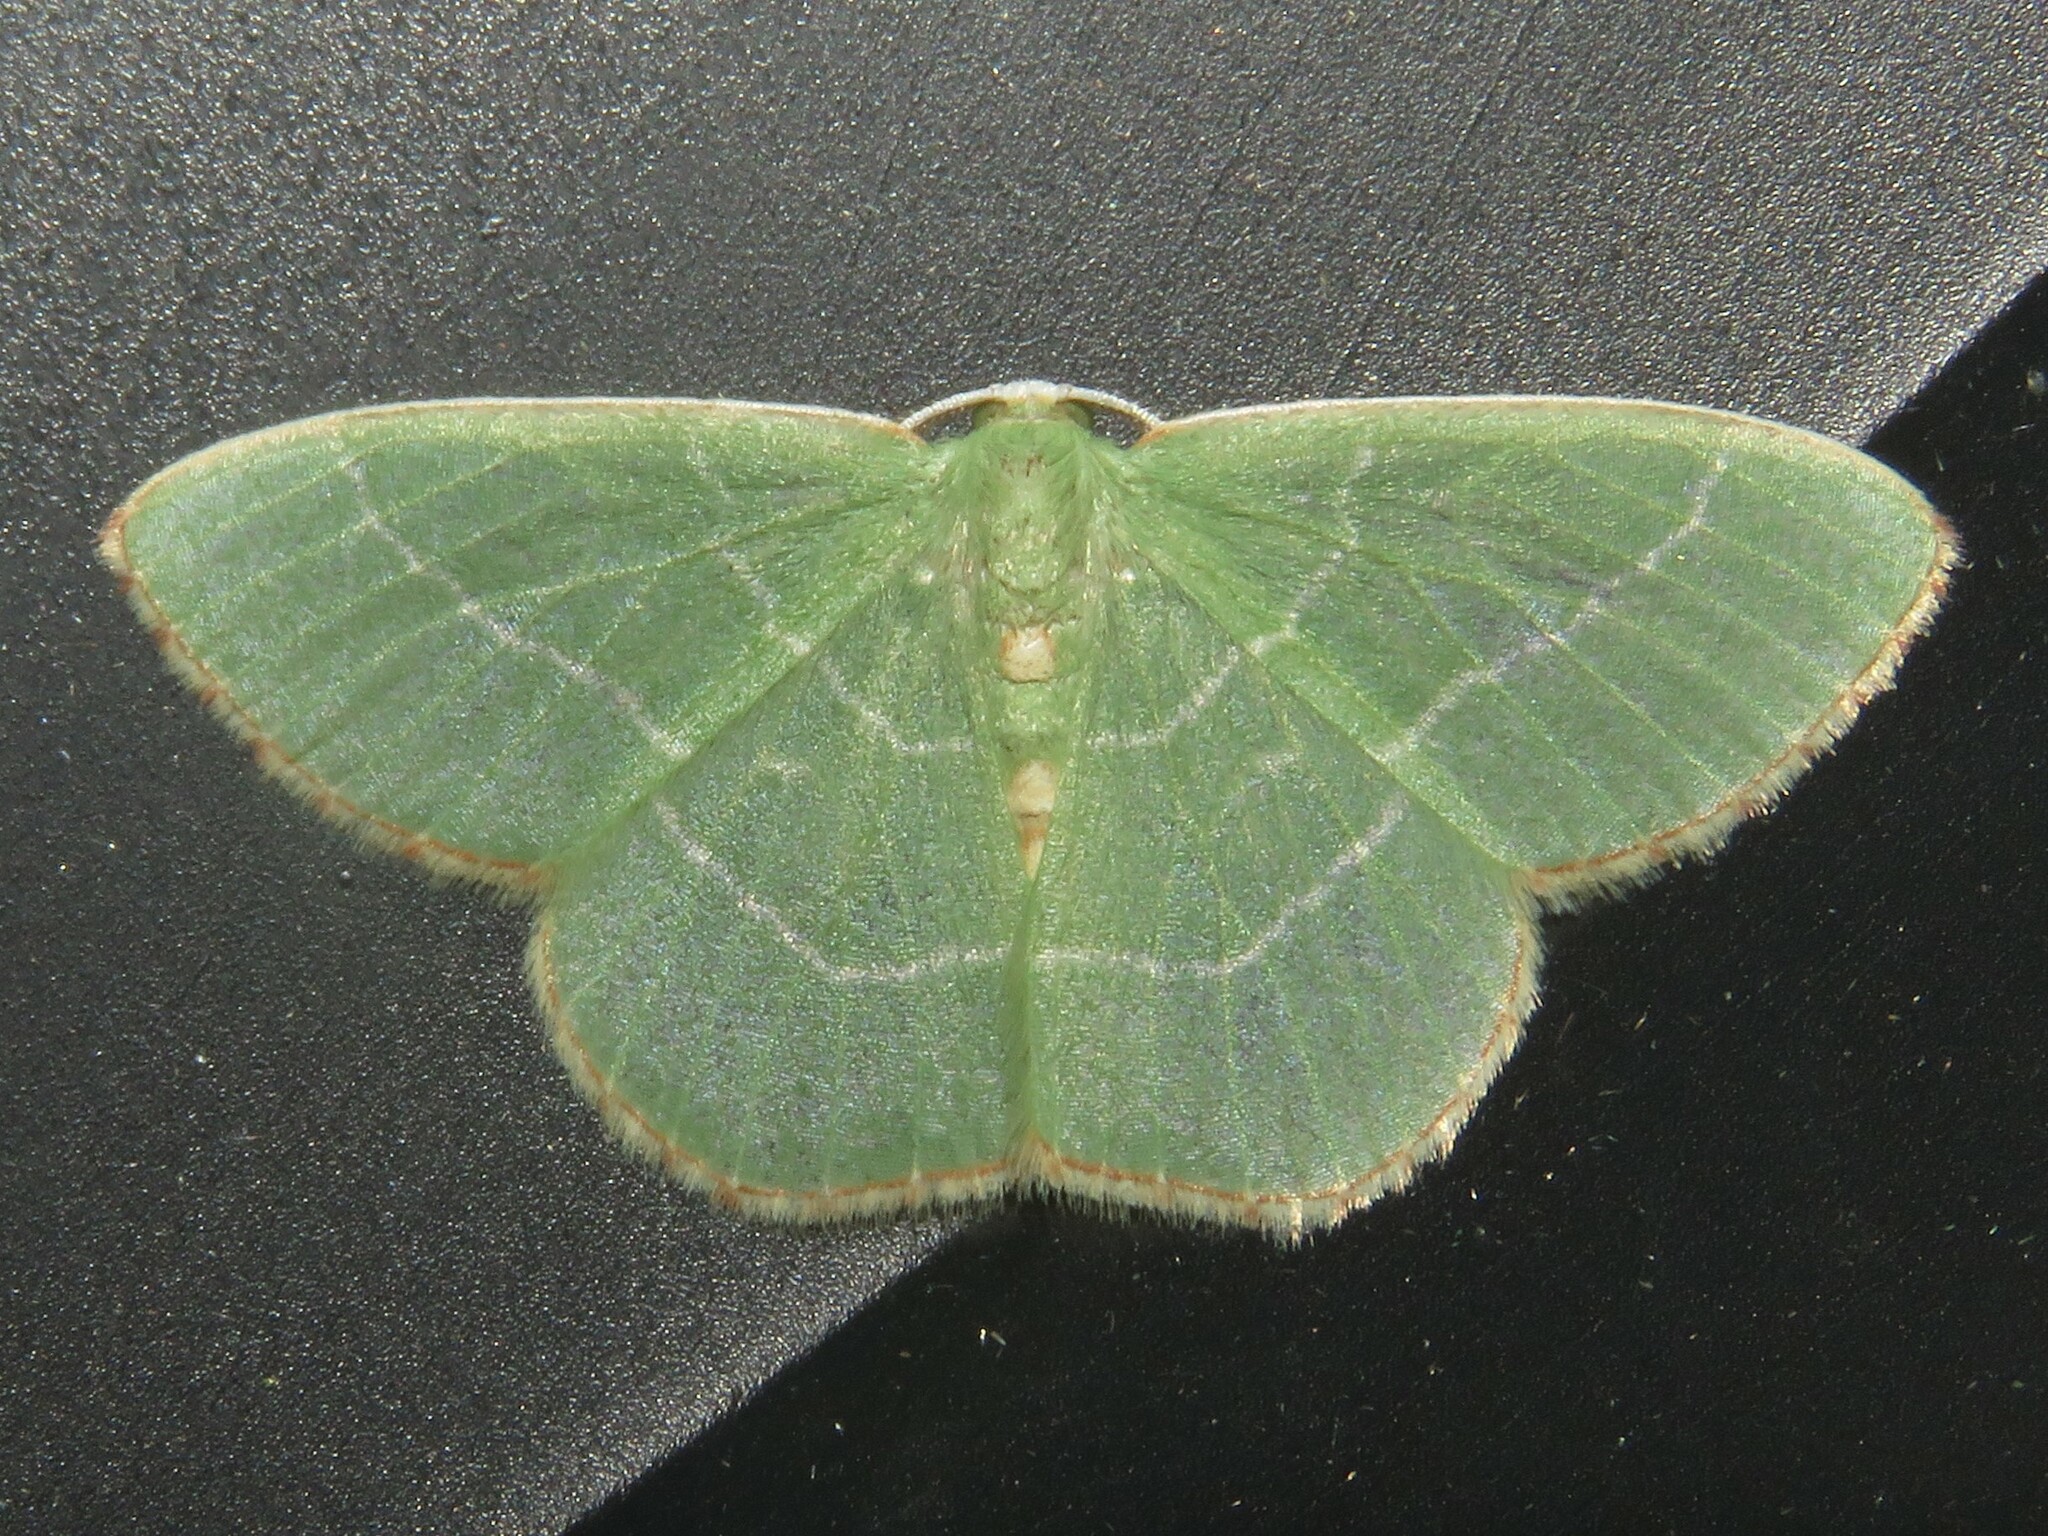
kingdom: Animalia
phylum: Arthropoda
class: Insecta
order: Lepidoptera
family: Geometridae
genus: Nemoria
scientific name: Nemoria bistriaria
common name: Red-fringed emerald
